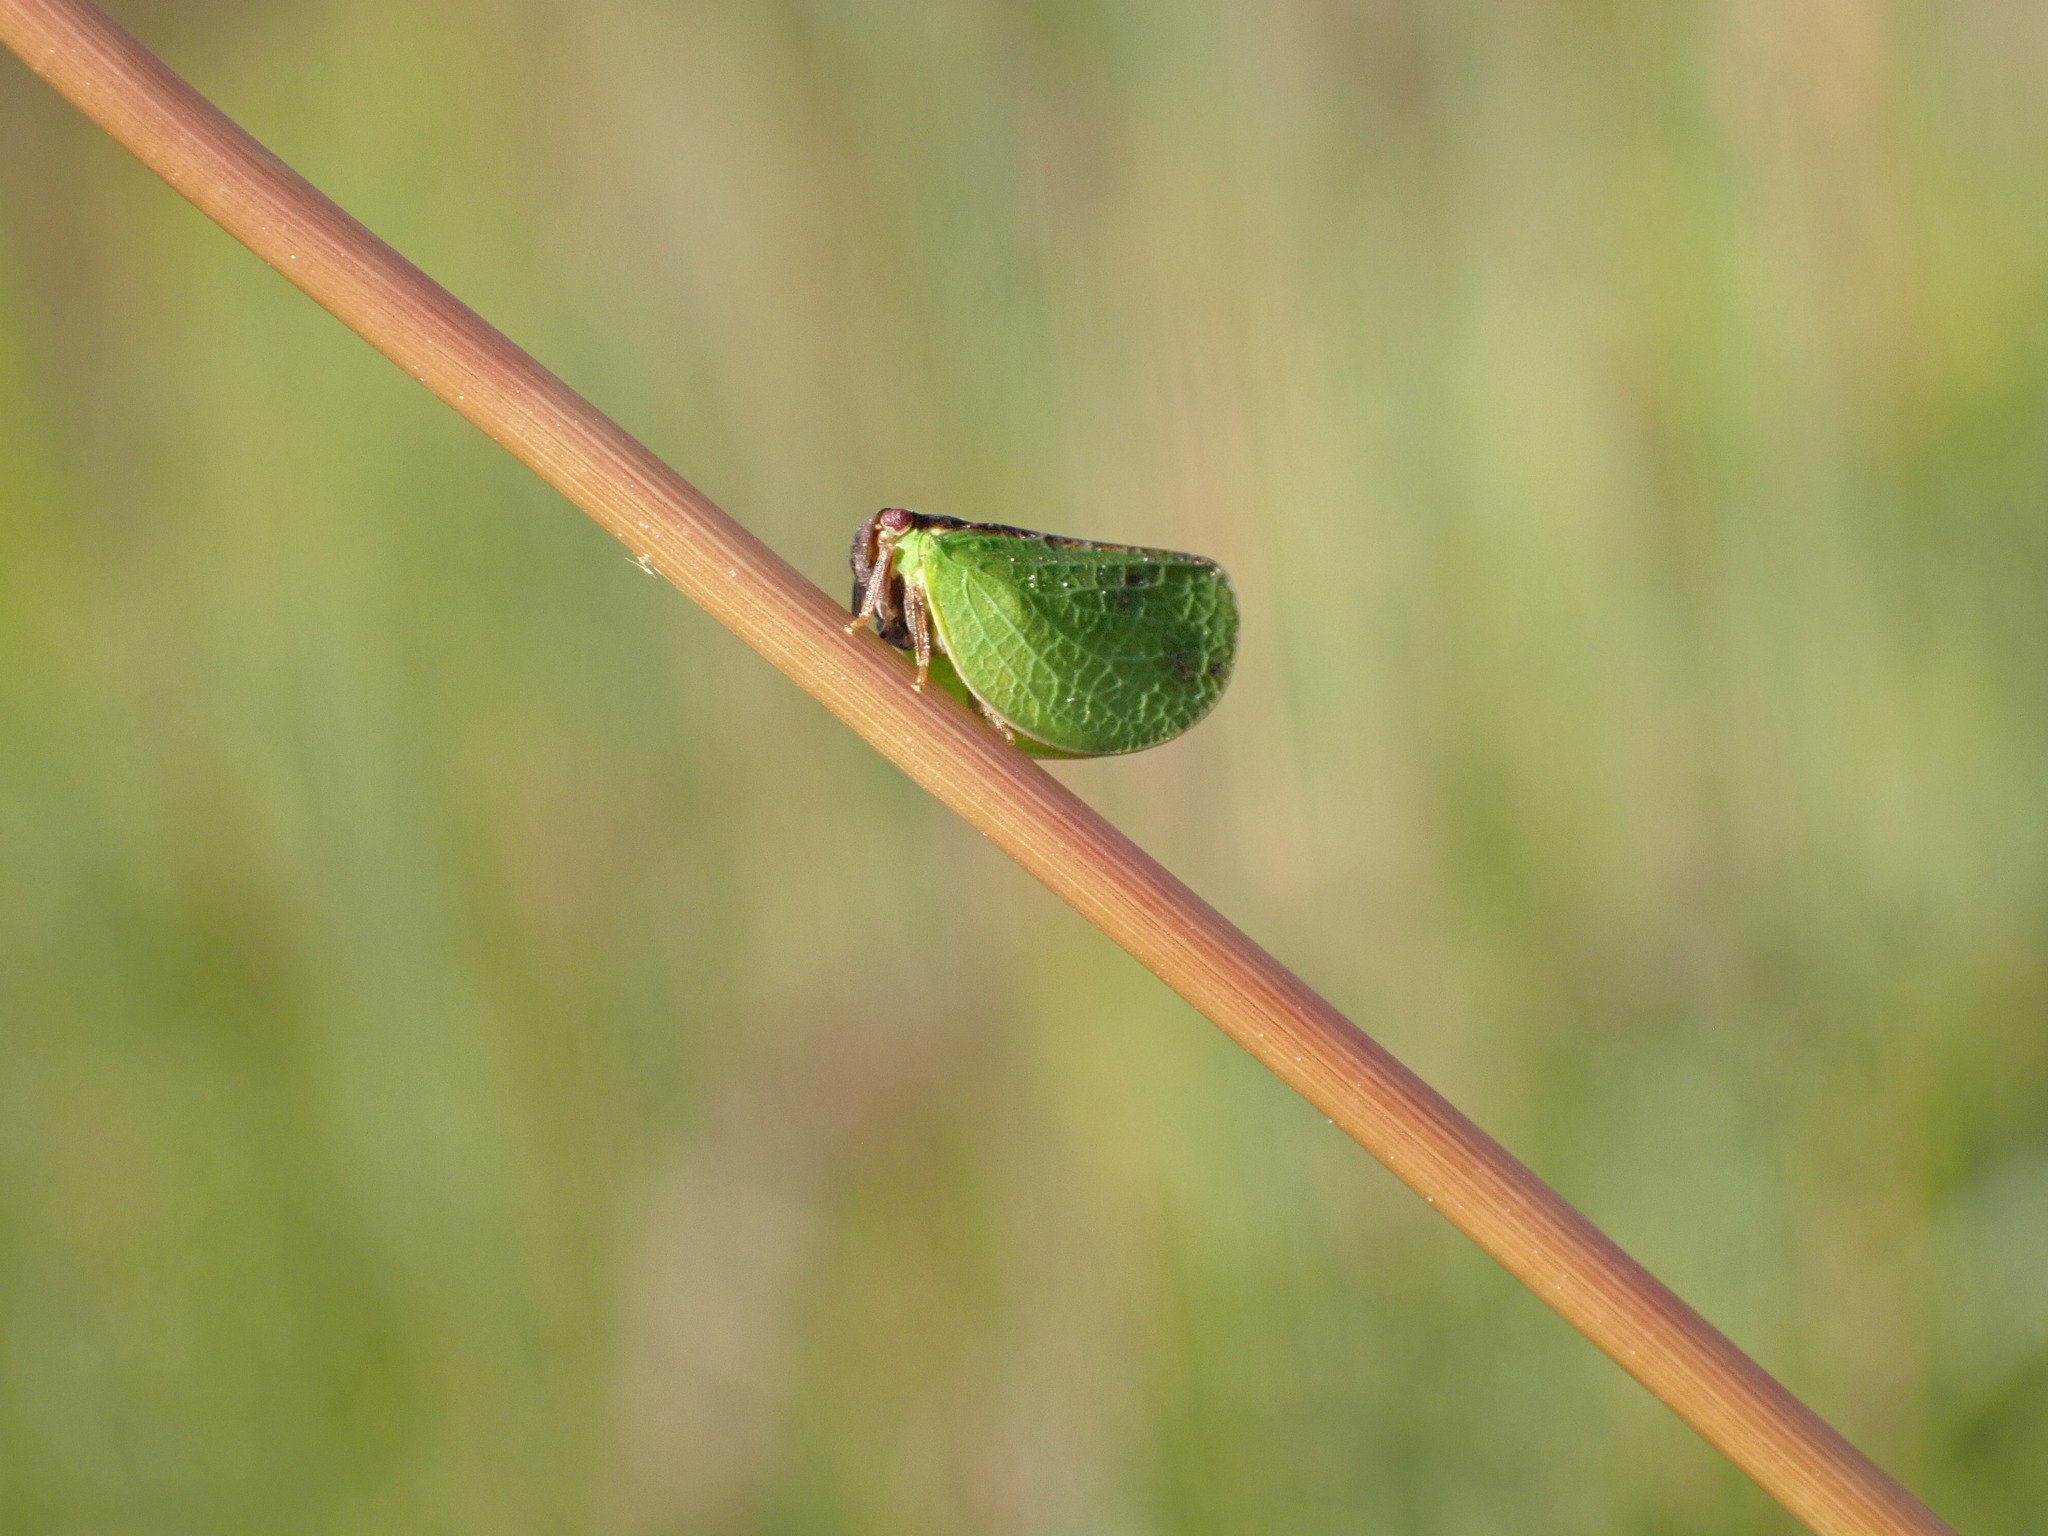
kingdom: Animalia
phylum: Arthropoda
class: Insecta
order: Hemiptera
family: Acanaloniidae
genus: Acanalonia
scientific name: Acanalonia bivittata
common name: Two-striped planthopper
